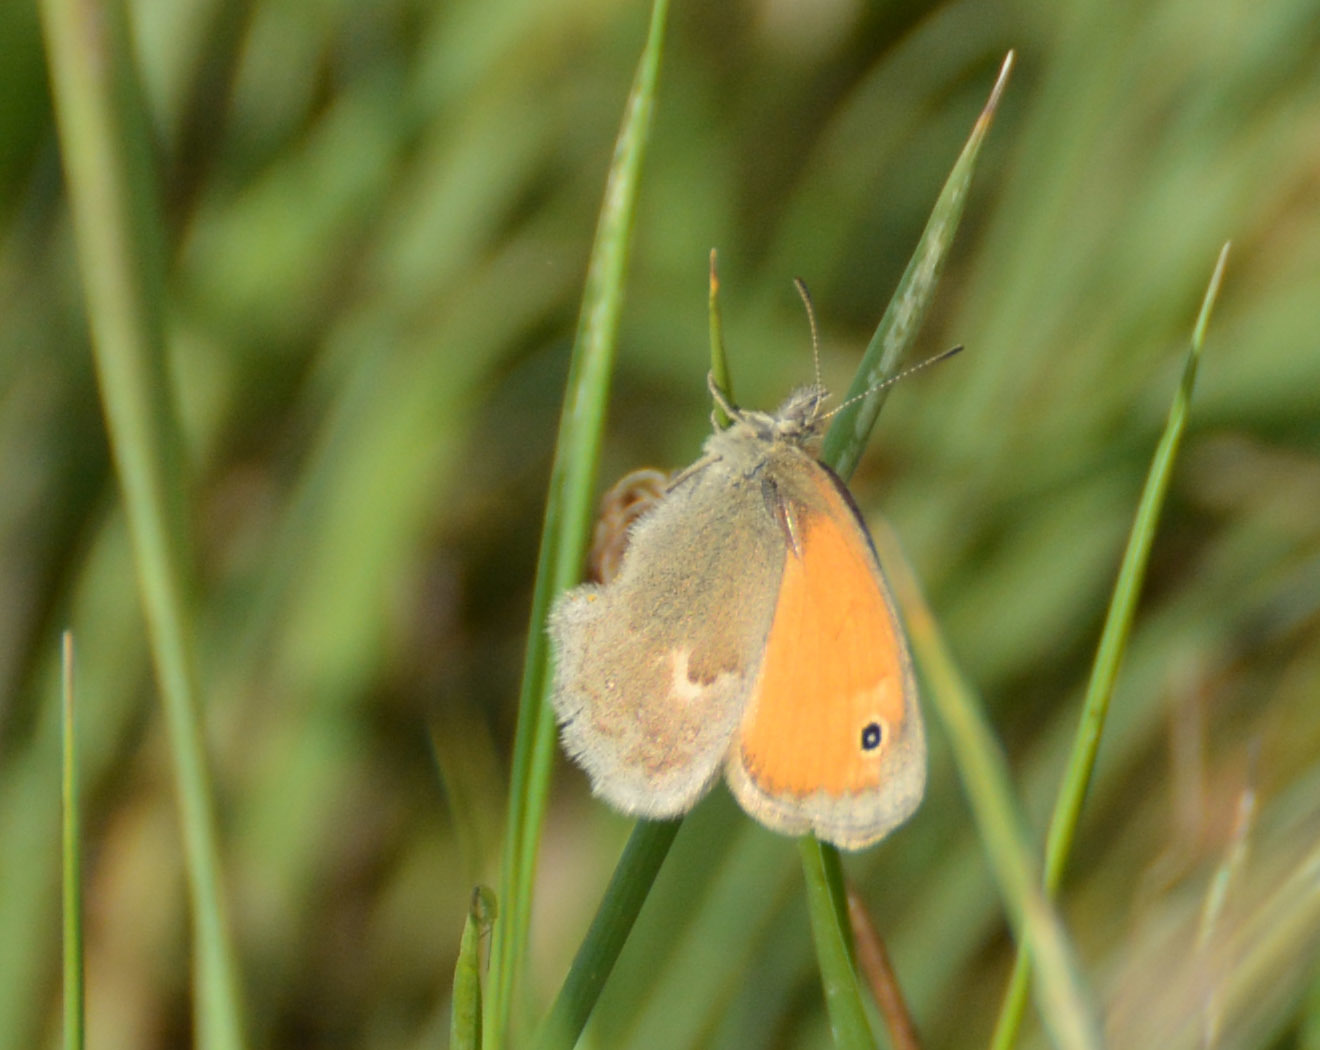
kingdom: Animalia
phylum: Arthropoda
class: Insecta
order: Lepidoptera
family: Nymphalidae
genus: Coenonympha
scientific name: Coenonympha pamphilus
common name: Small heath
